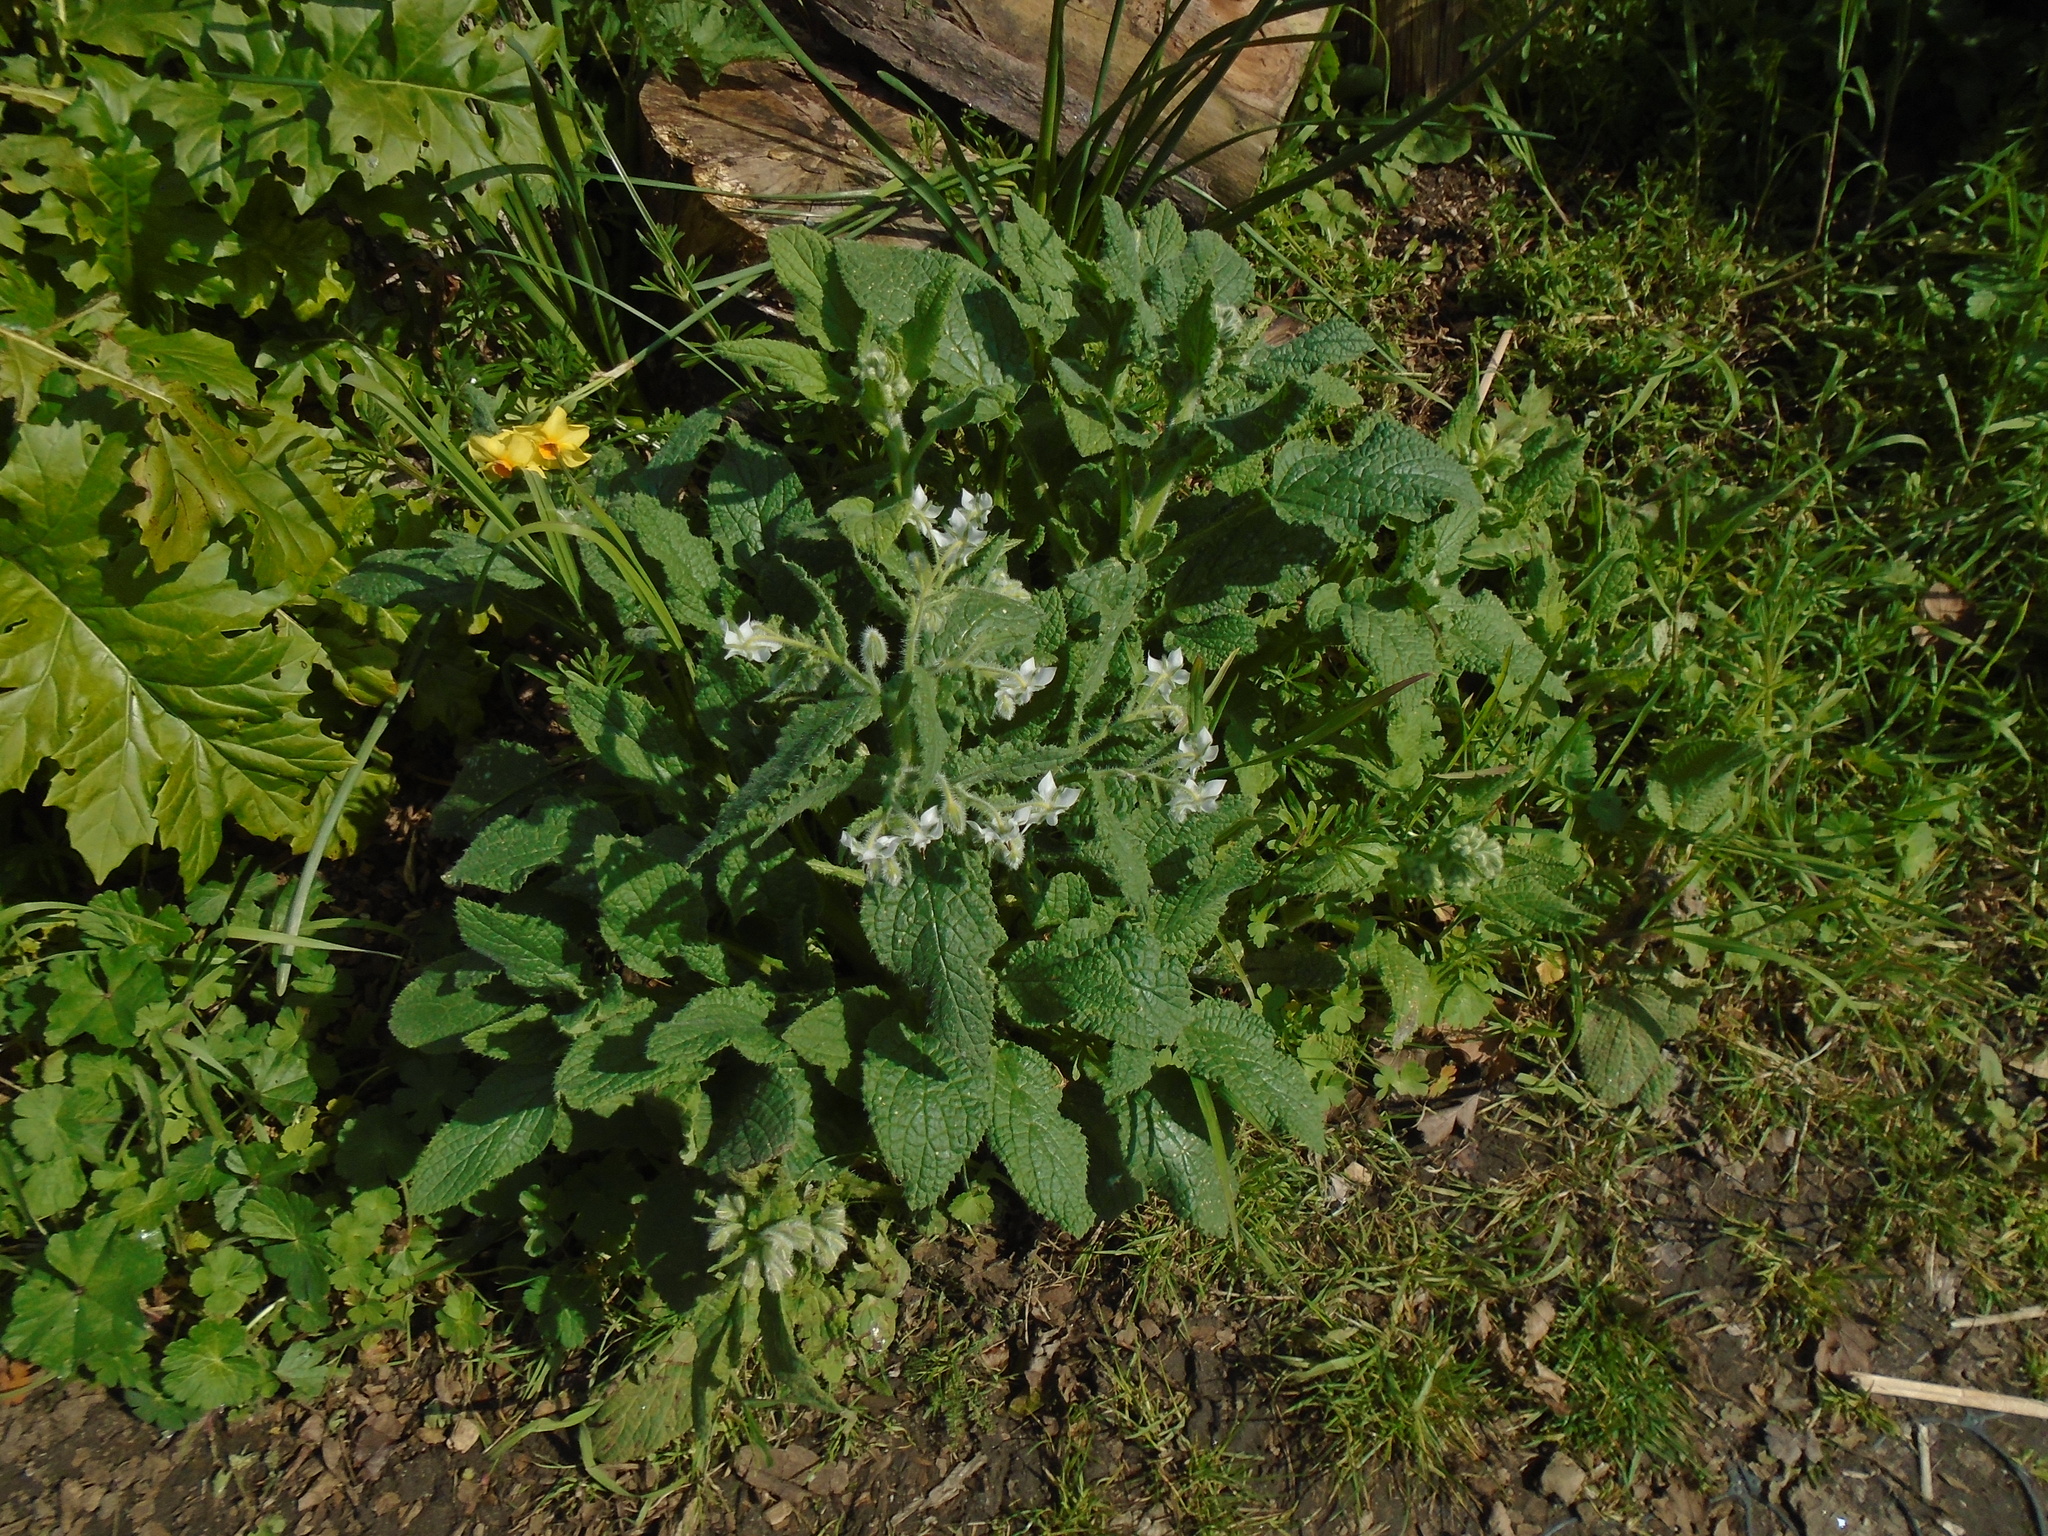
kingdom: Plantae
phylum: Tracheophyta
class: Magnoliopsida
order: Boraginales
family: Boraginaceae
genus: Borago
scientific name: Borago officinalis
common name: Borage
